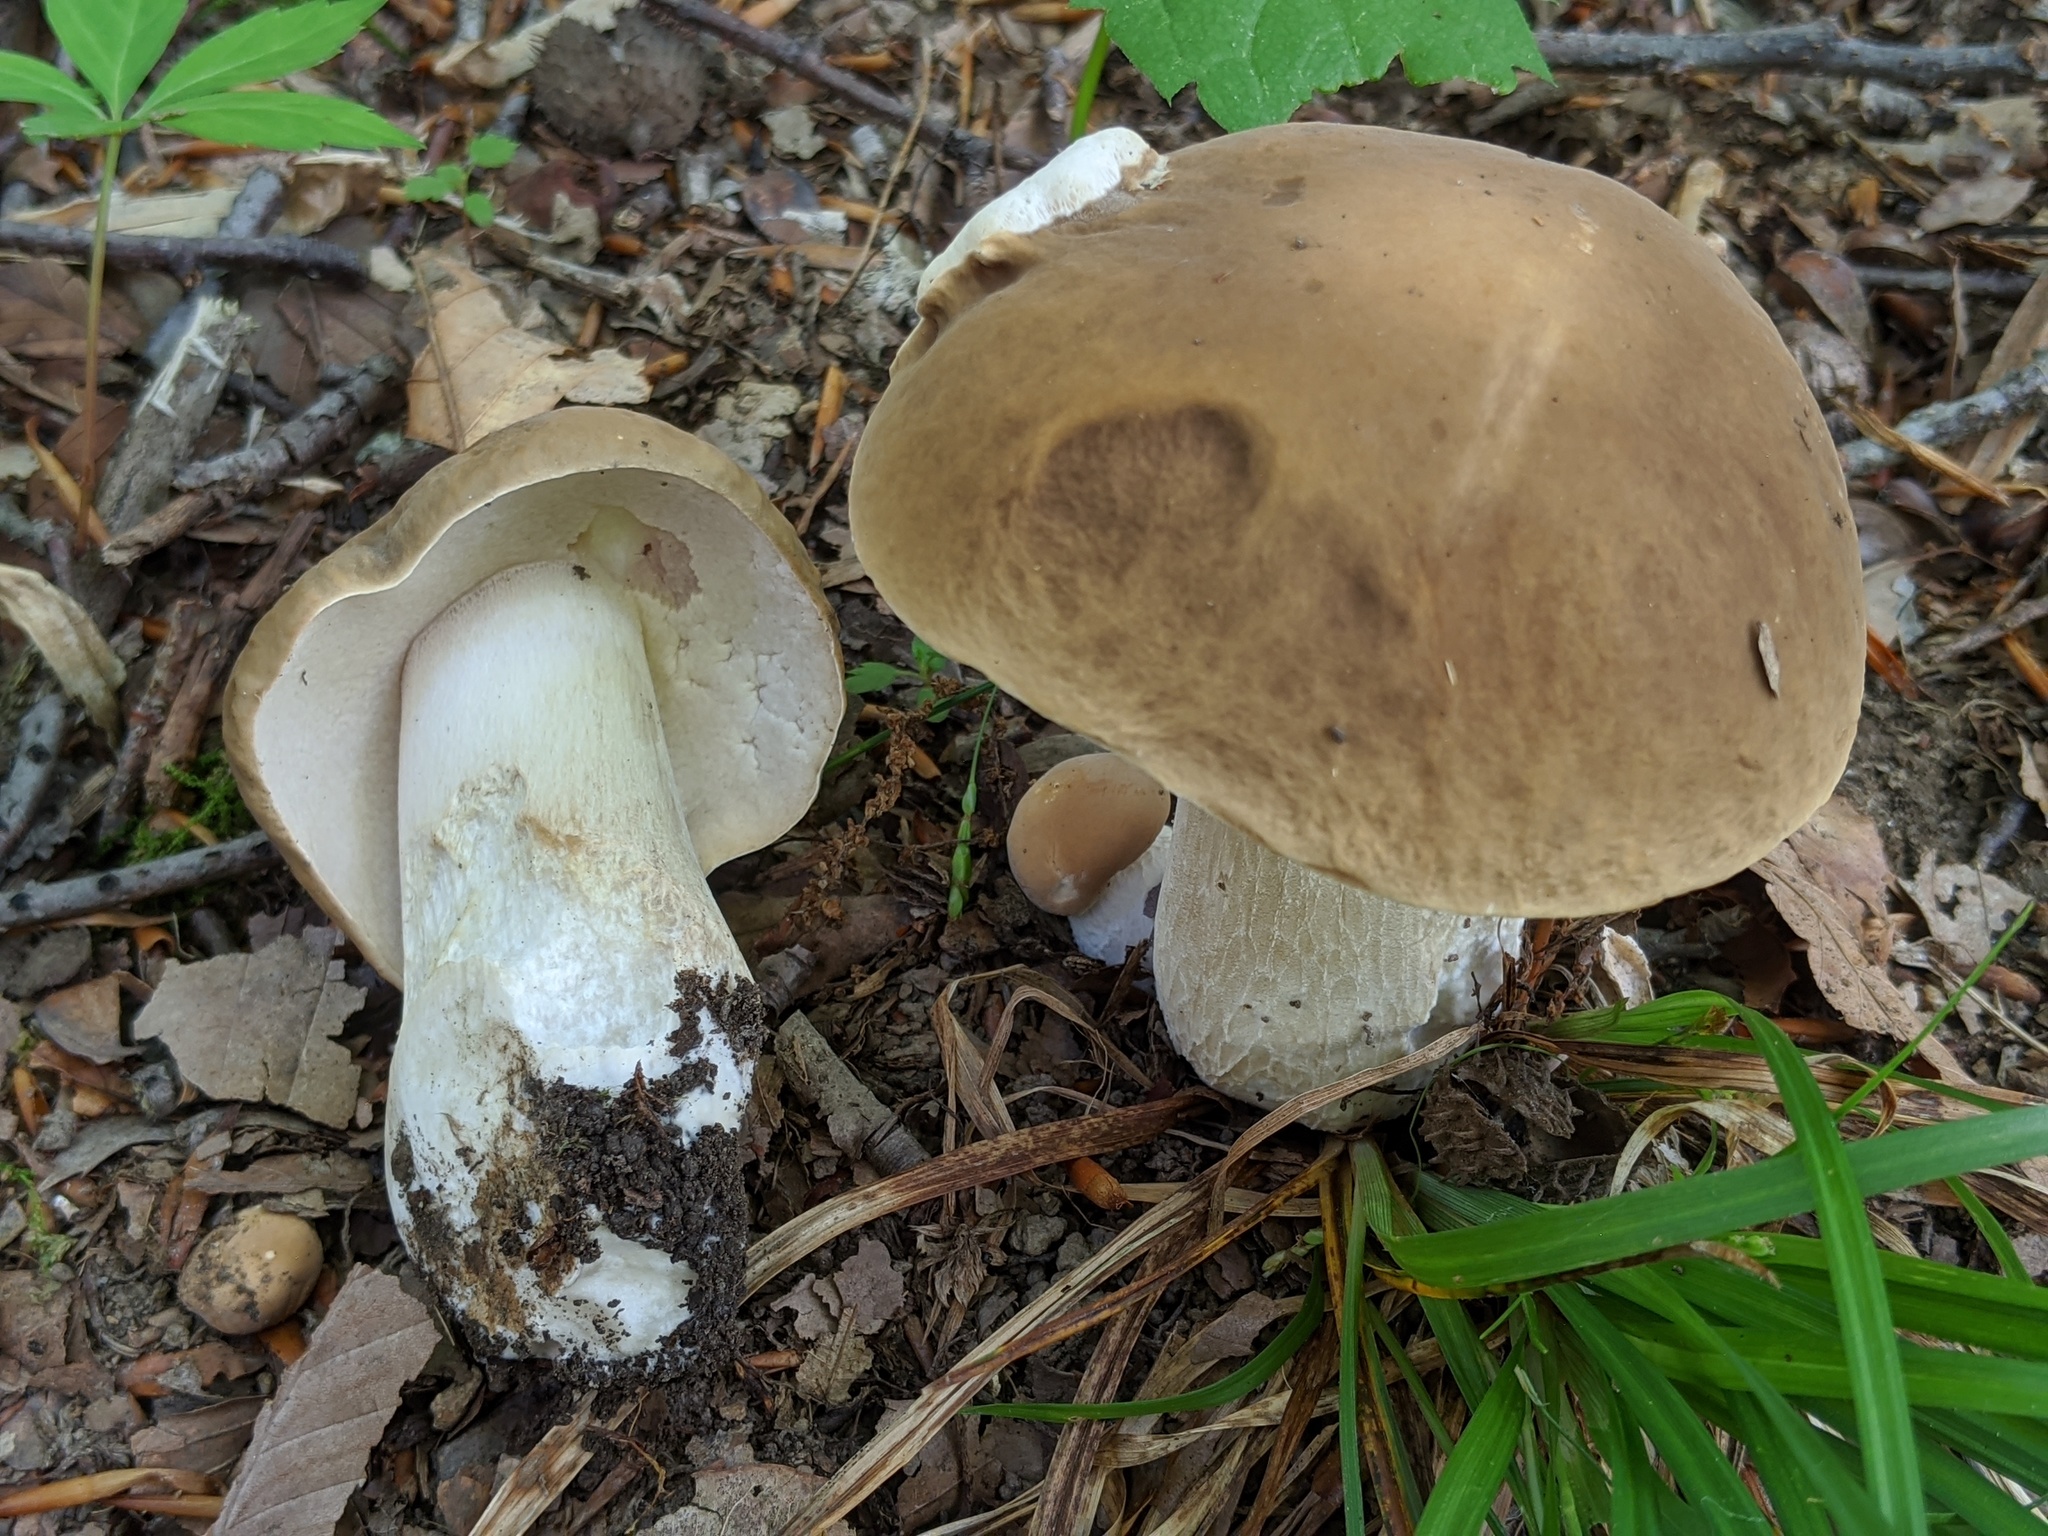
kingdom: Fungi
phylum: Basidiomycota
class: Agaricomycetes
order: Boletales
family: Boletaceae
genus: Boletus
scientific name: Boletus nobilis
